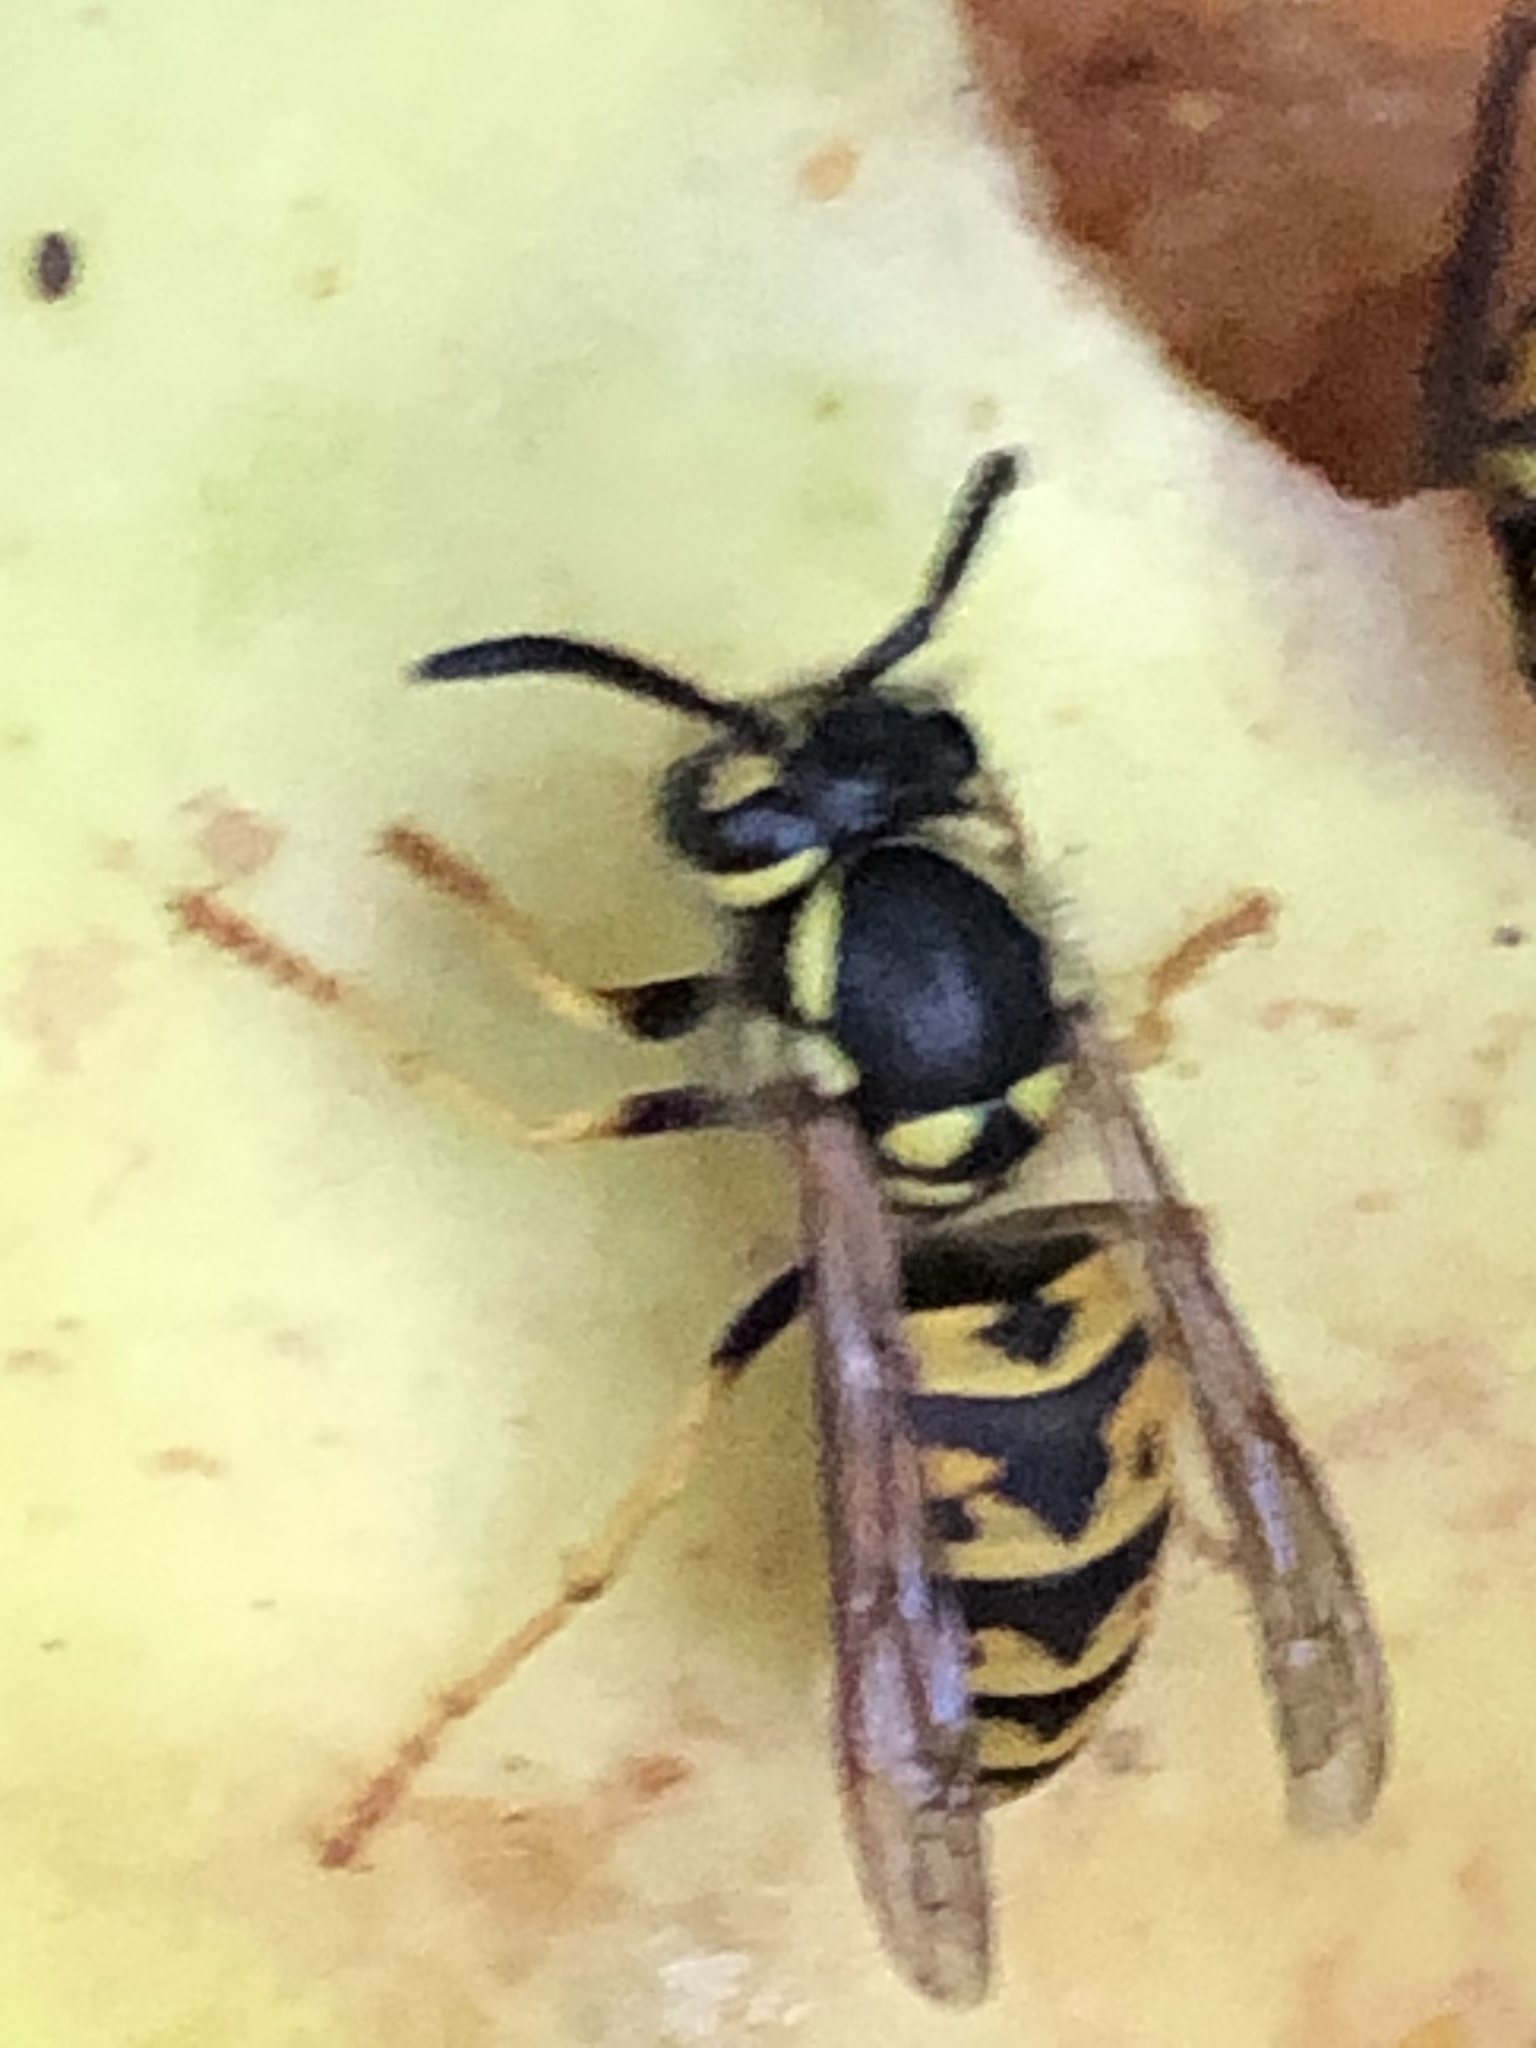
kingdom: Animalia
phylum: Arthropoda
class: Insecta
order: Hymenoptera
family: Vespidae
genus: Vespula
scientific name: Vespula germanica
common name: German wasp
